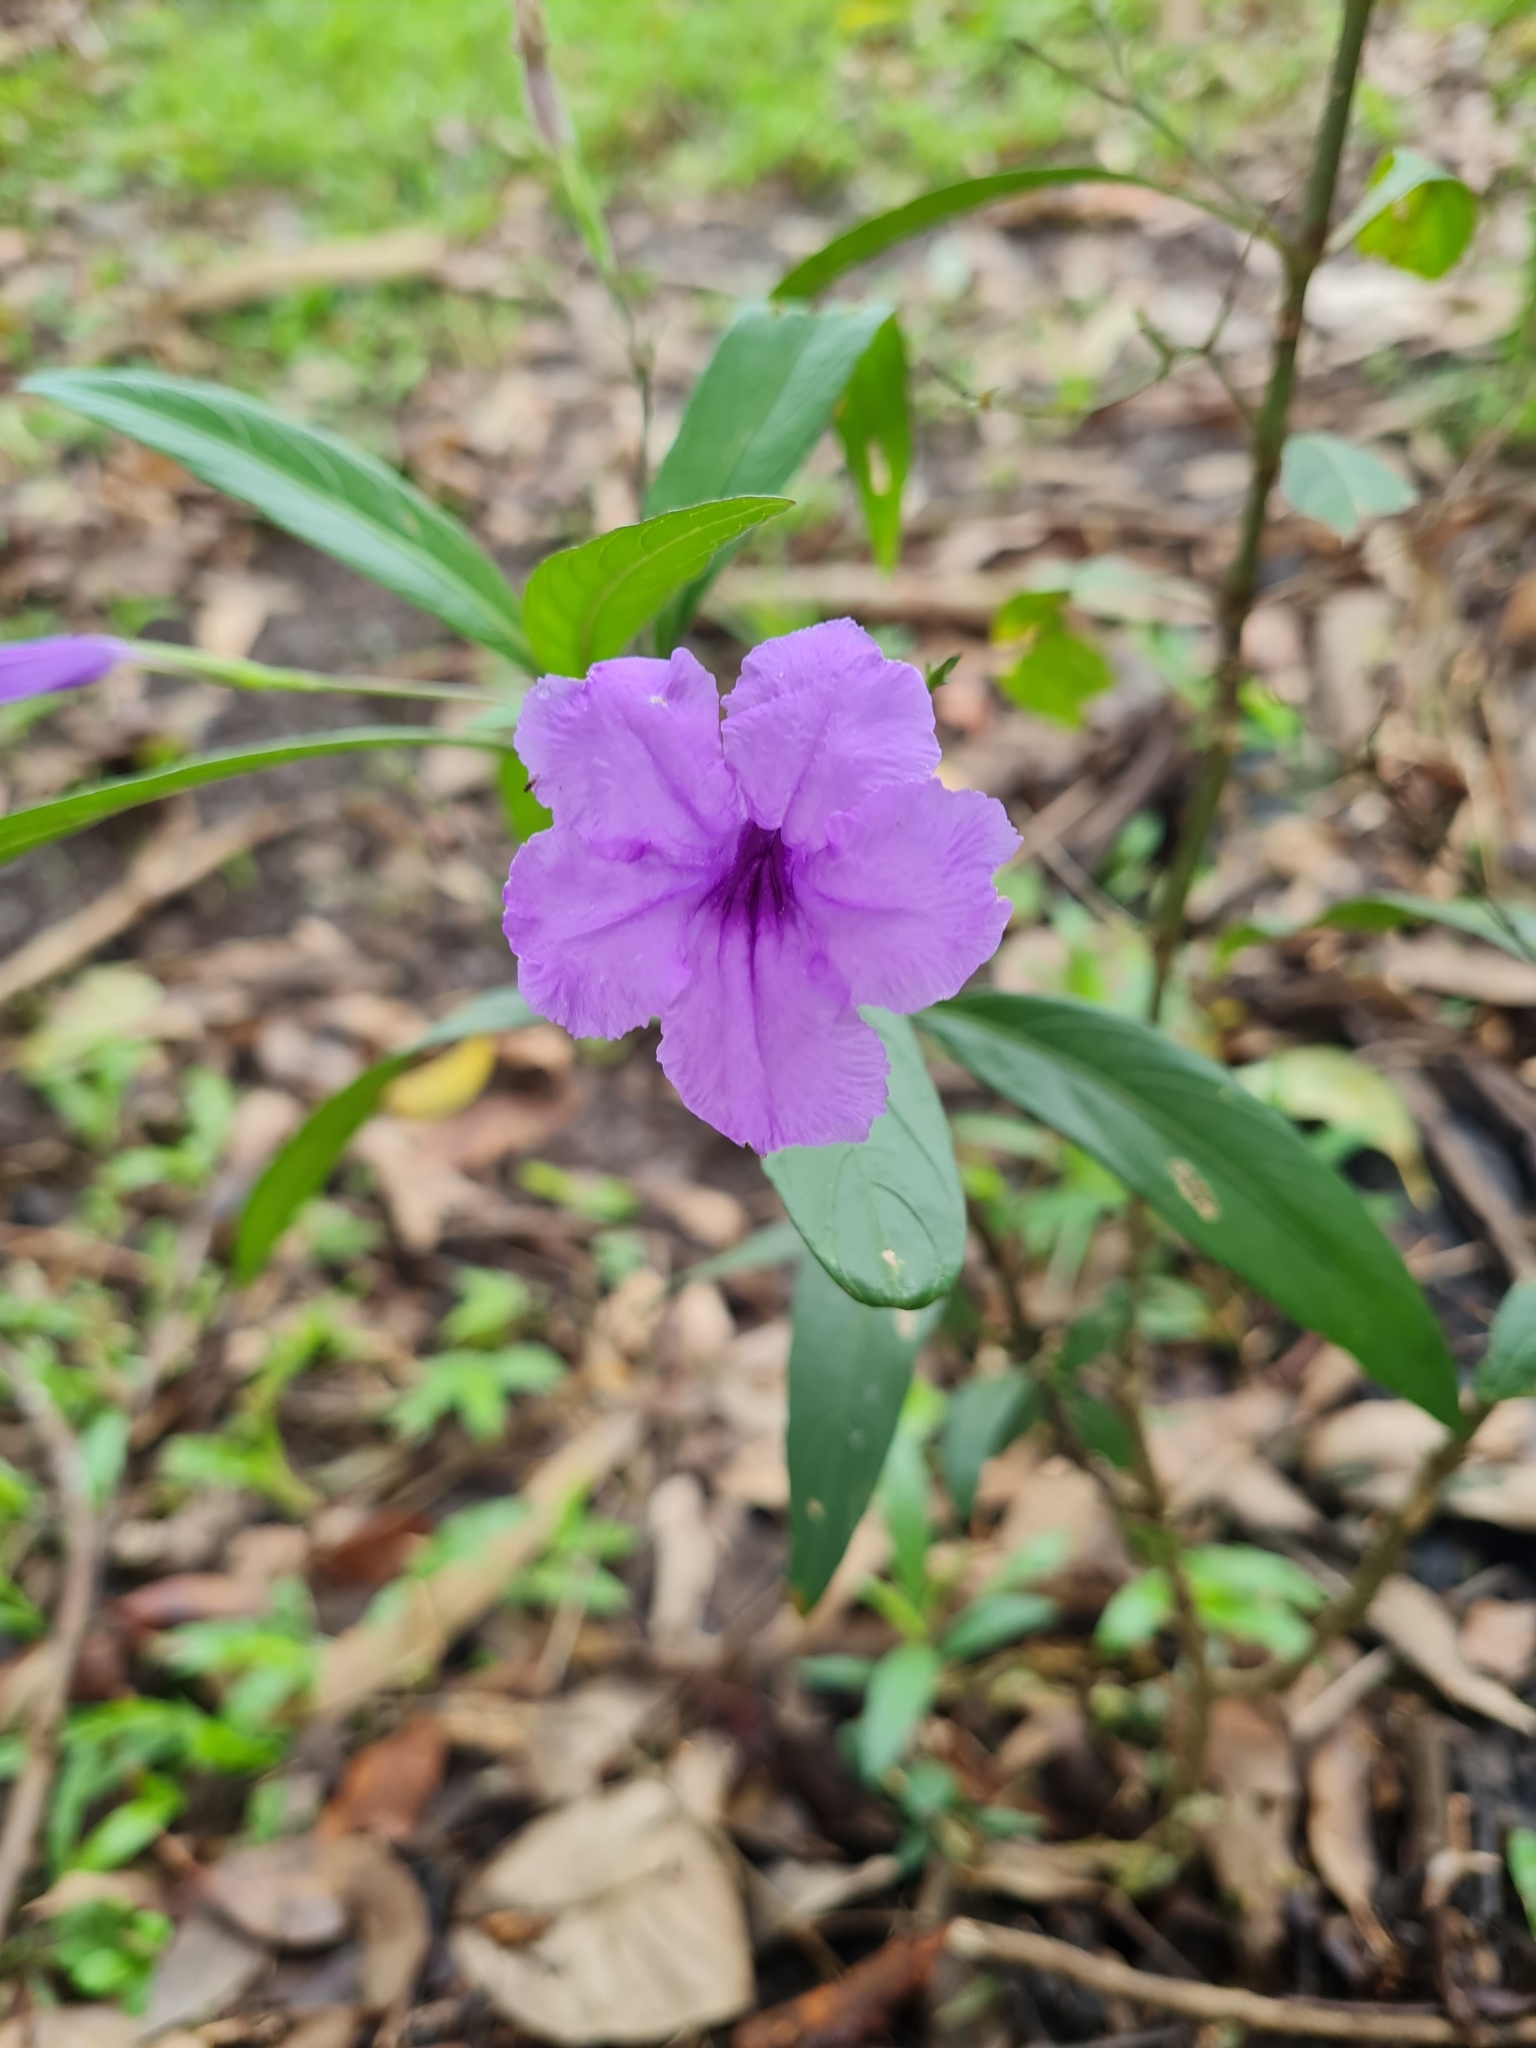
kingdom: Plantae
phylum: Tracheophyta
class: Magnoliopsida
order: Lamiales
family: Acanthaceae
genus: Ruellia
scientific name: Ruellia simplex
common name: Softseed wild petunia
